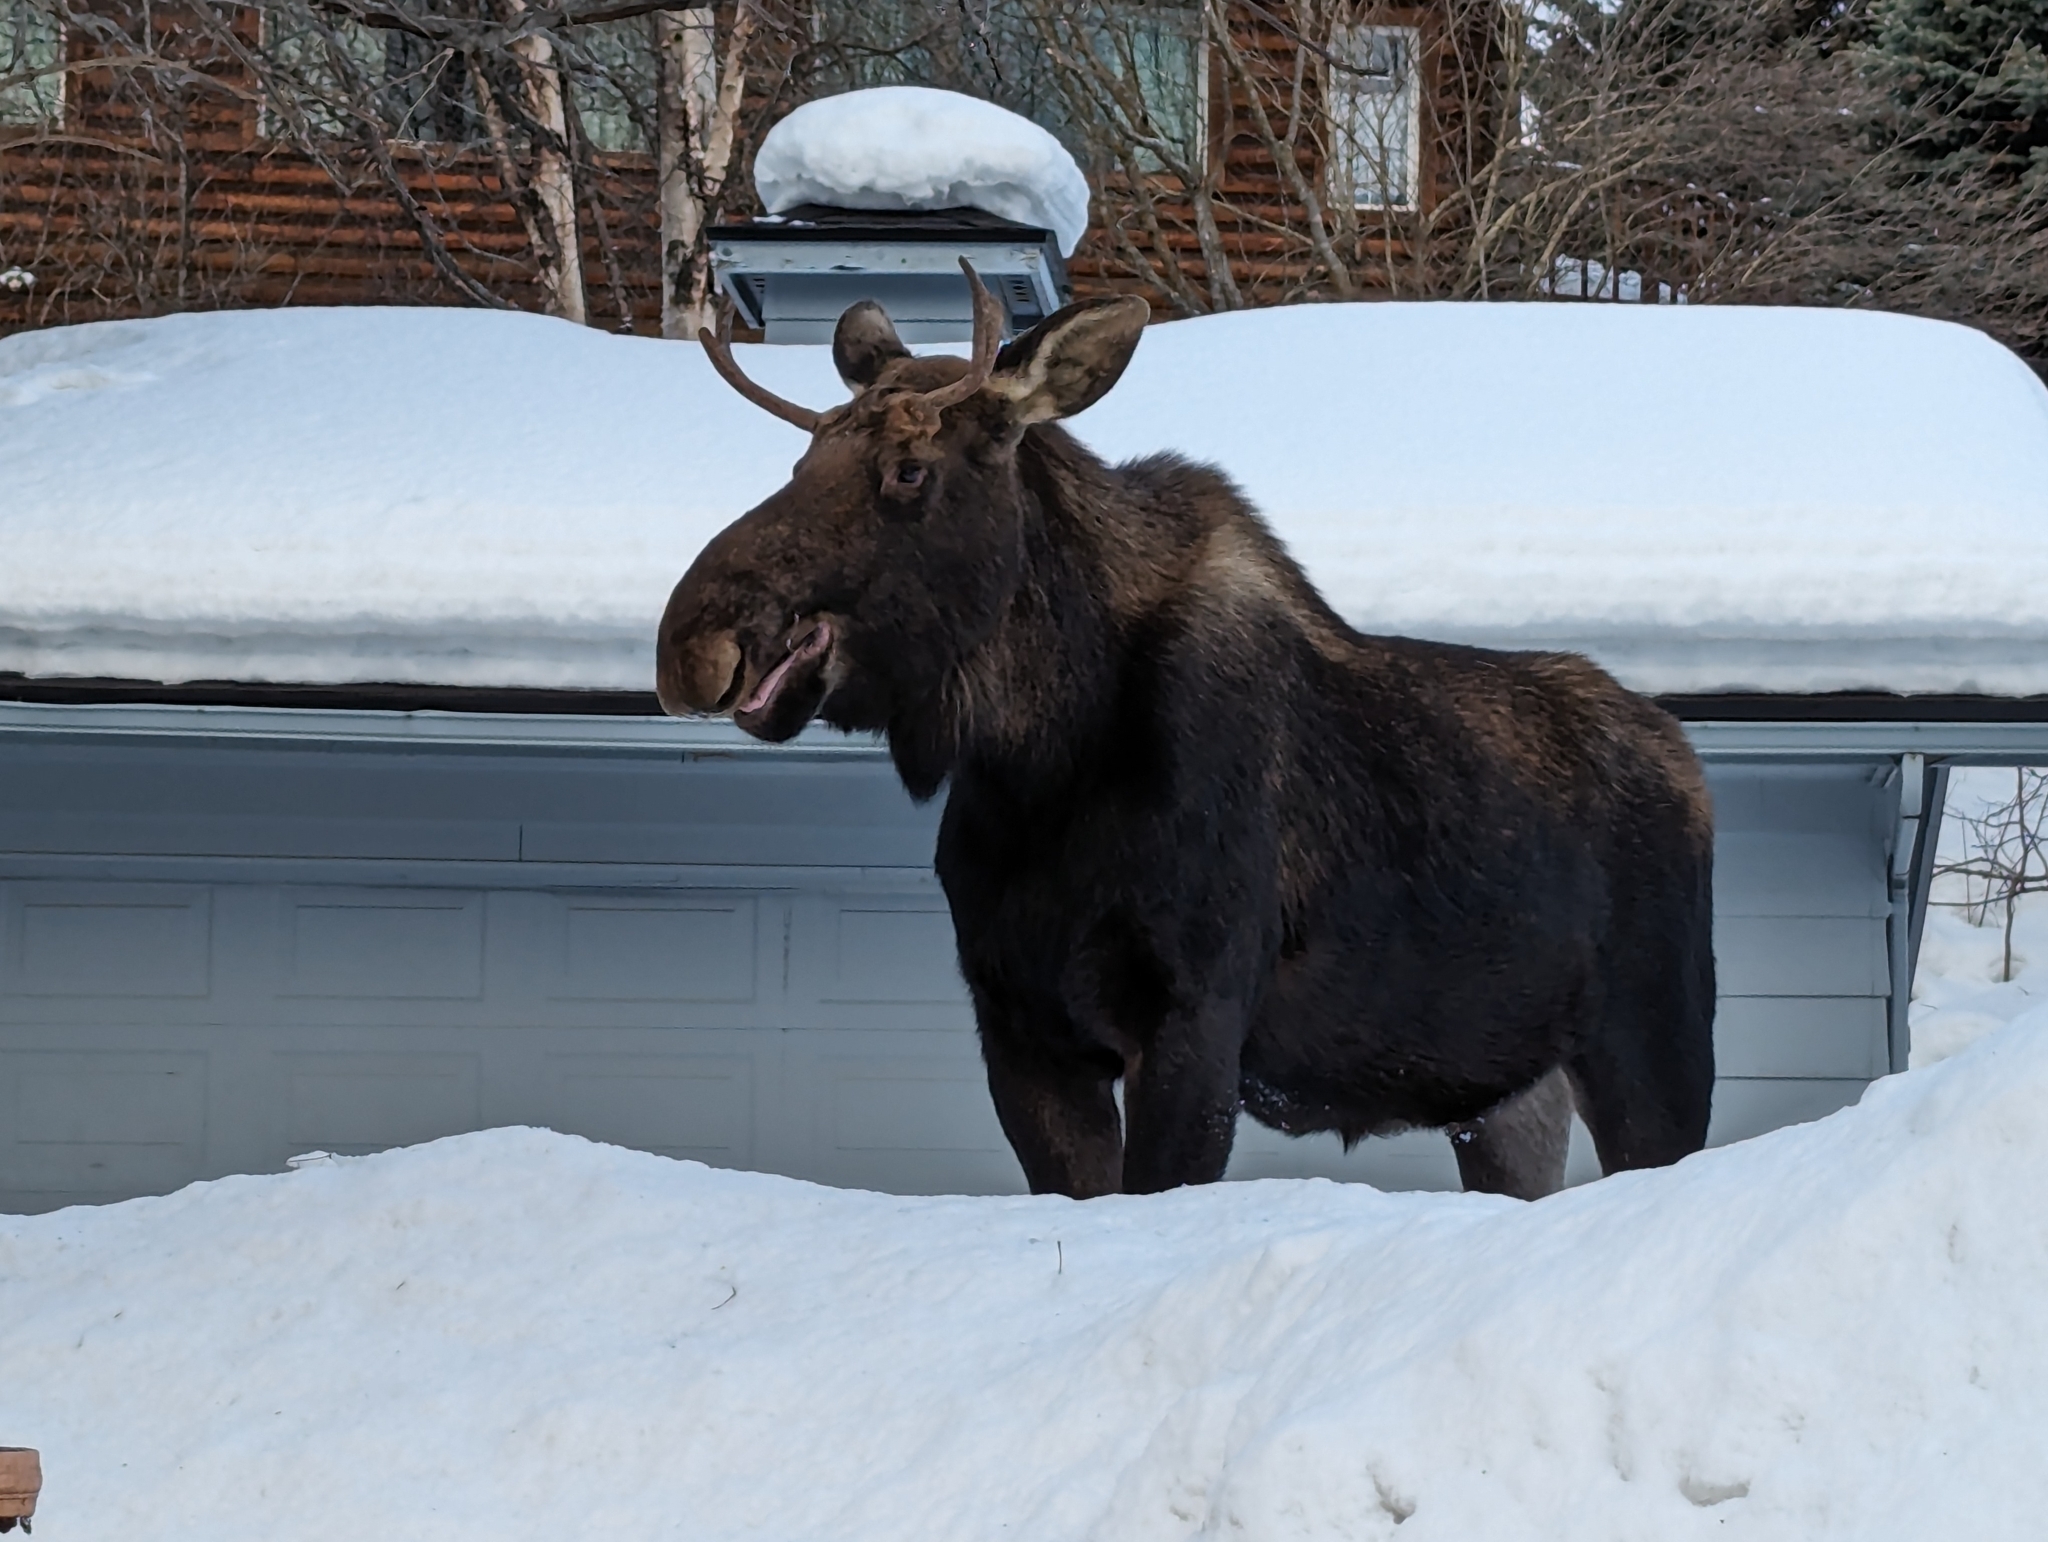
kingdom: Animalia
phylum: Chordata
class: Mammalia
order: Artiodactyla
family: Cervidae
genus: Alces
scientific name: Alces alces
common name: Moose
